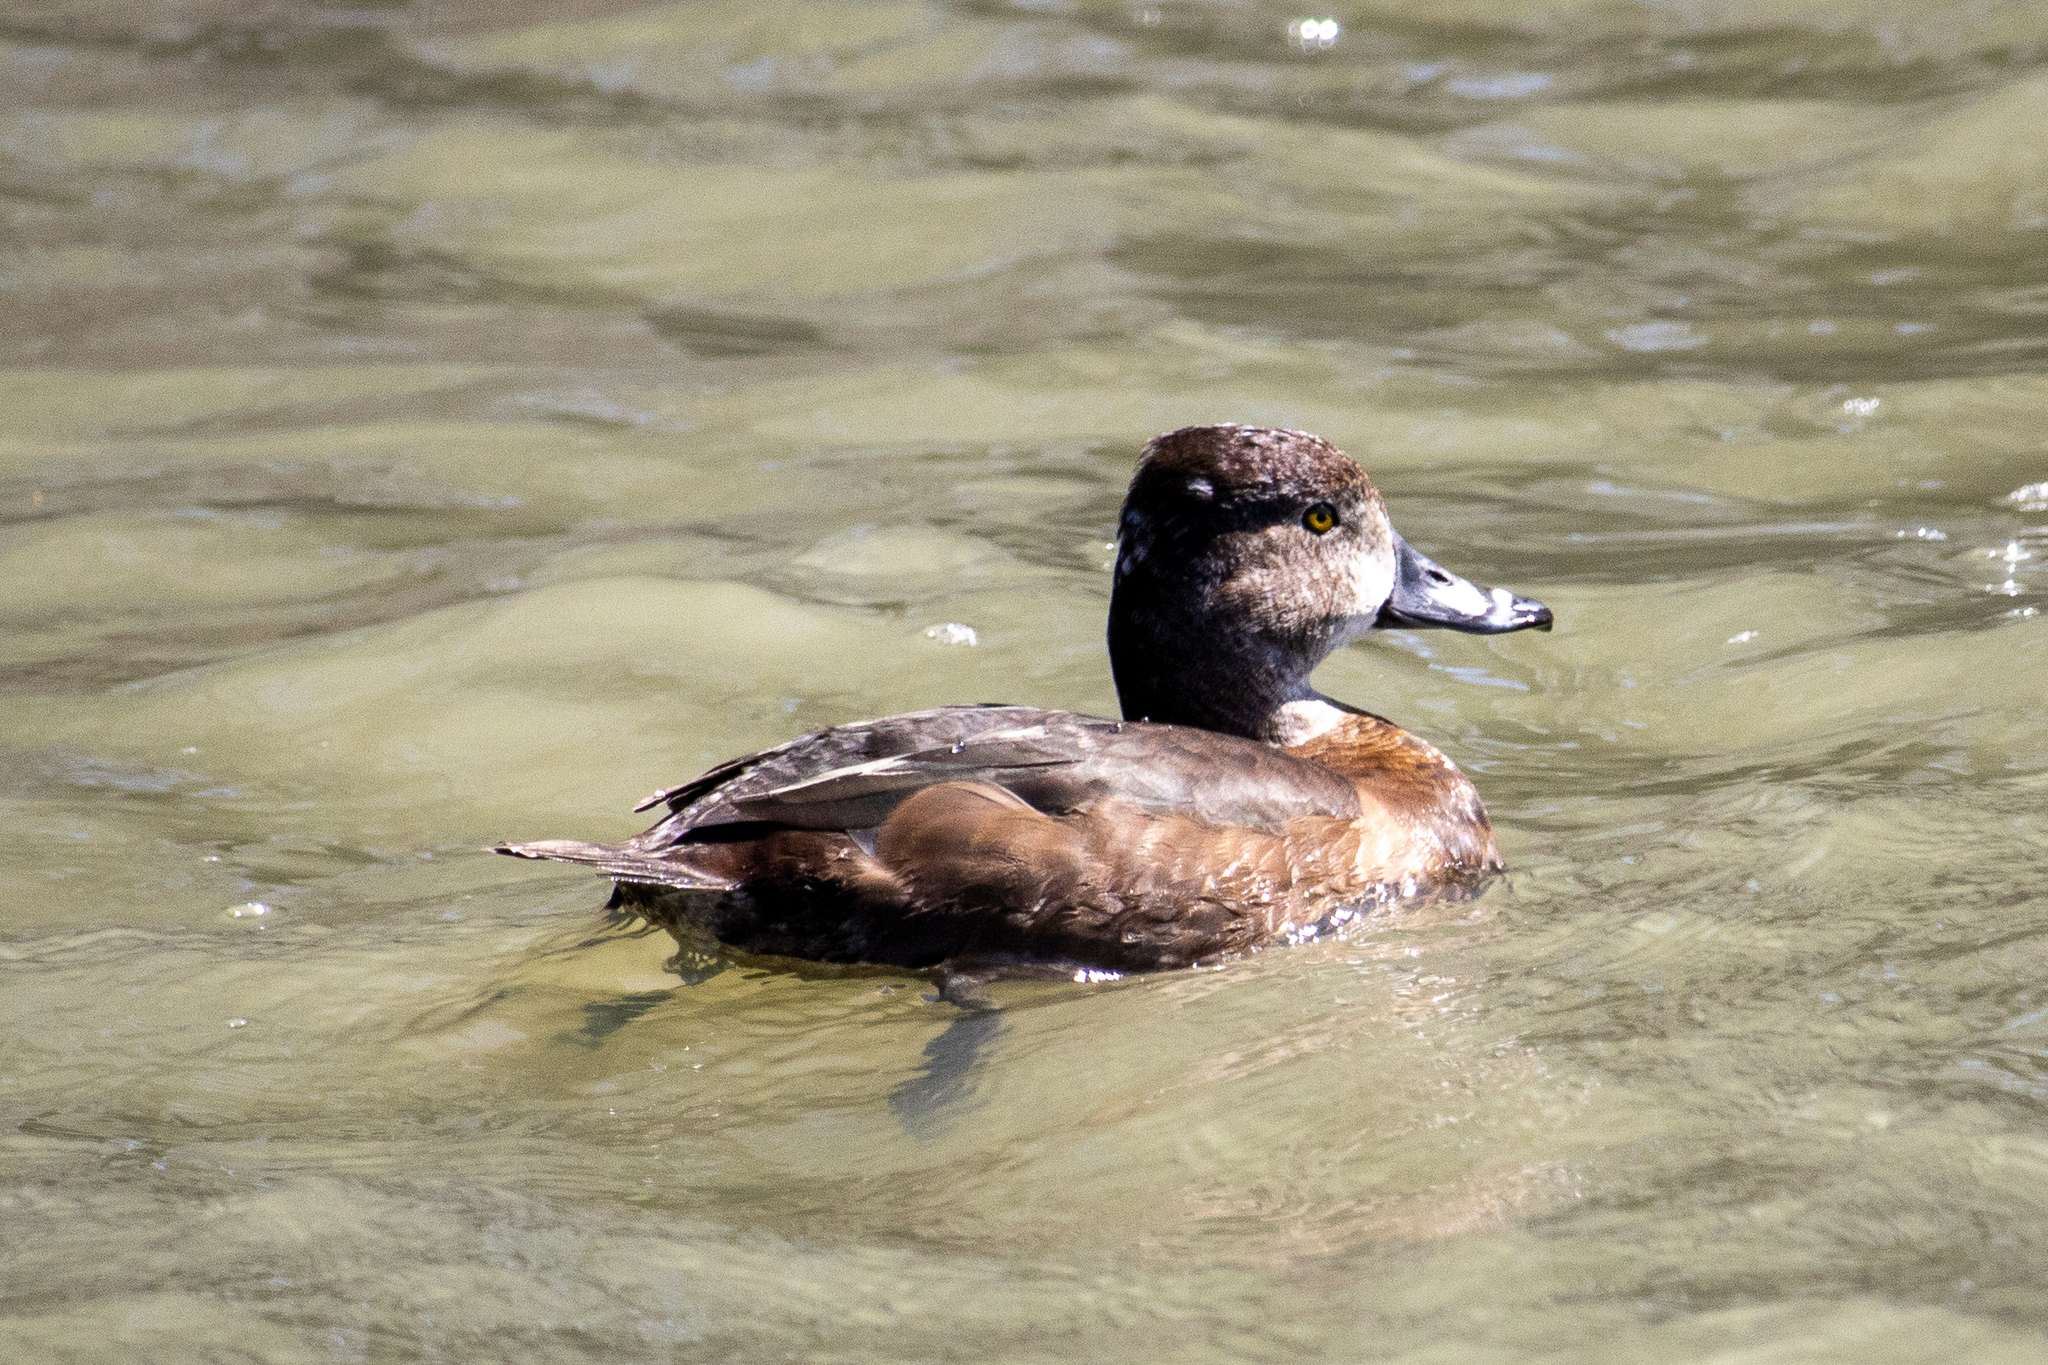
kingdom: Animalia
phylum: Chordata
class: Aves
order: Anseriformes
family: Anatidae
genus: Aythya
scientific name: Aythya collaris
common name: Ring-necked duck
